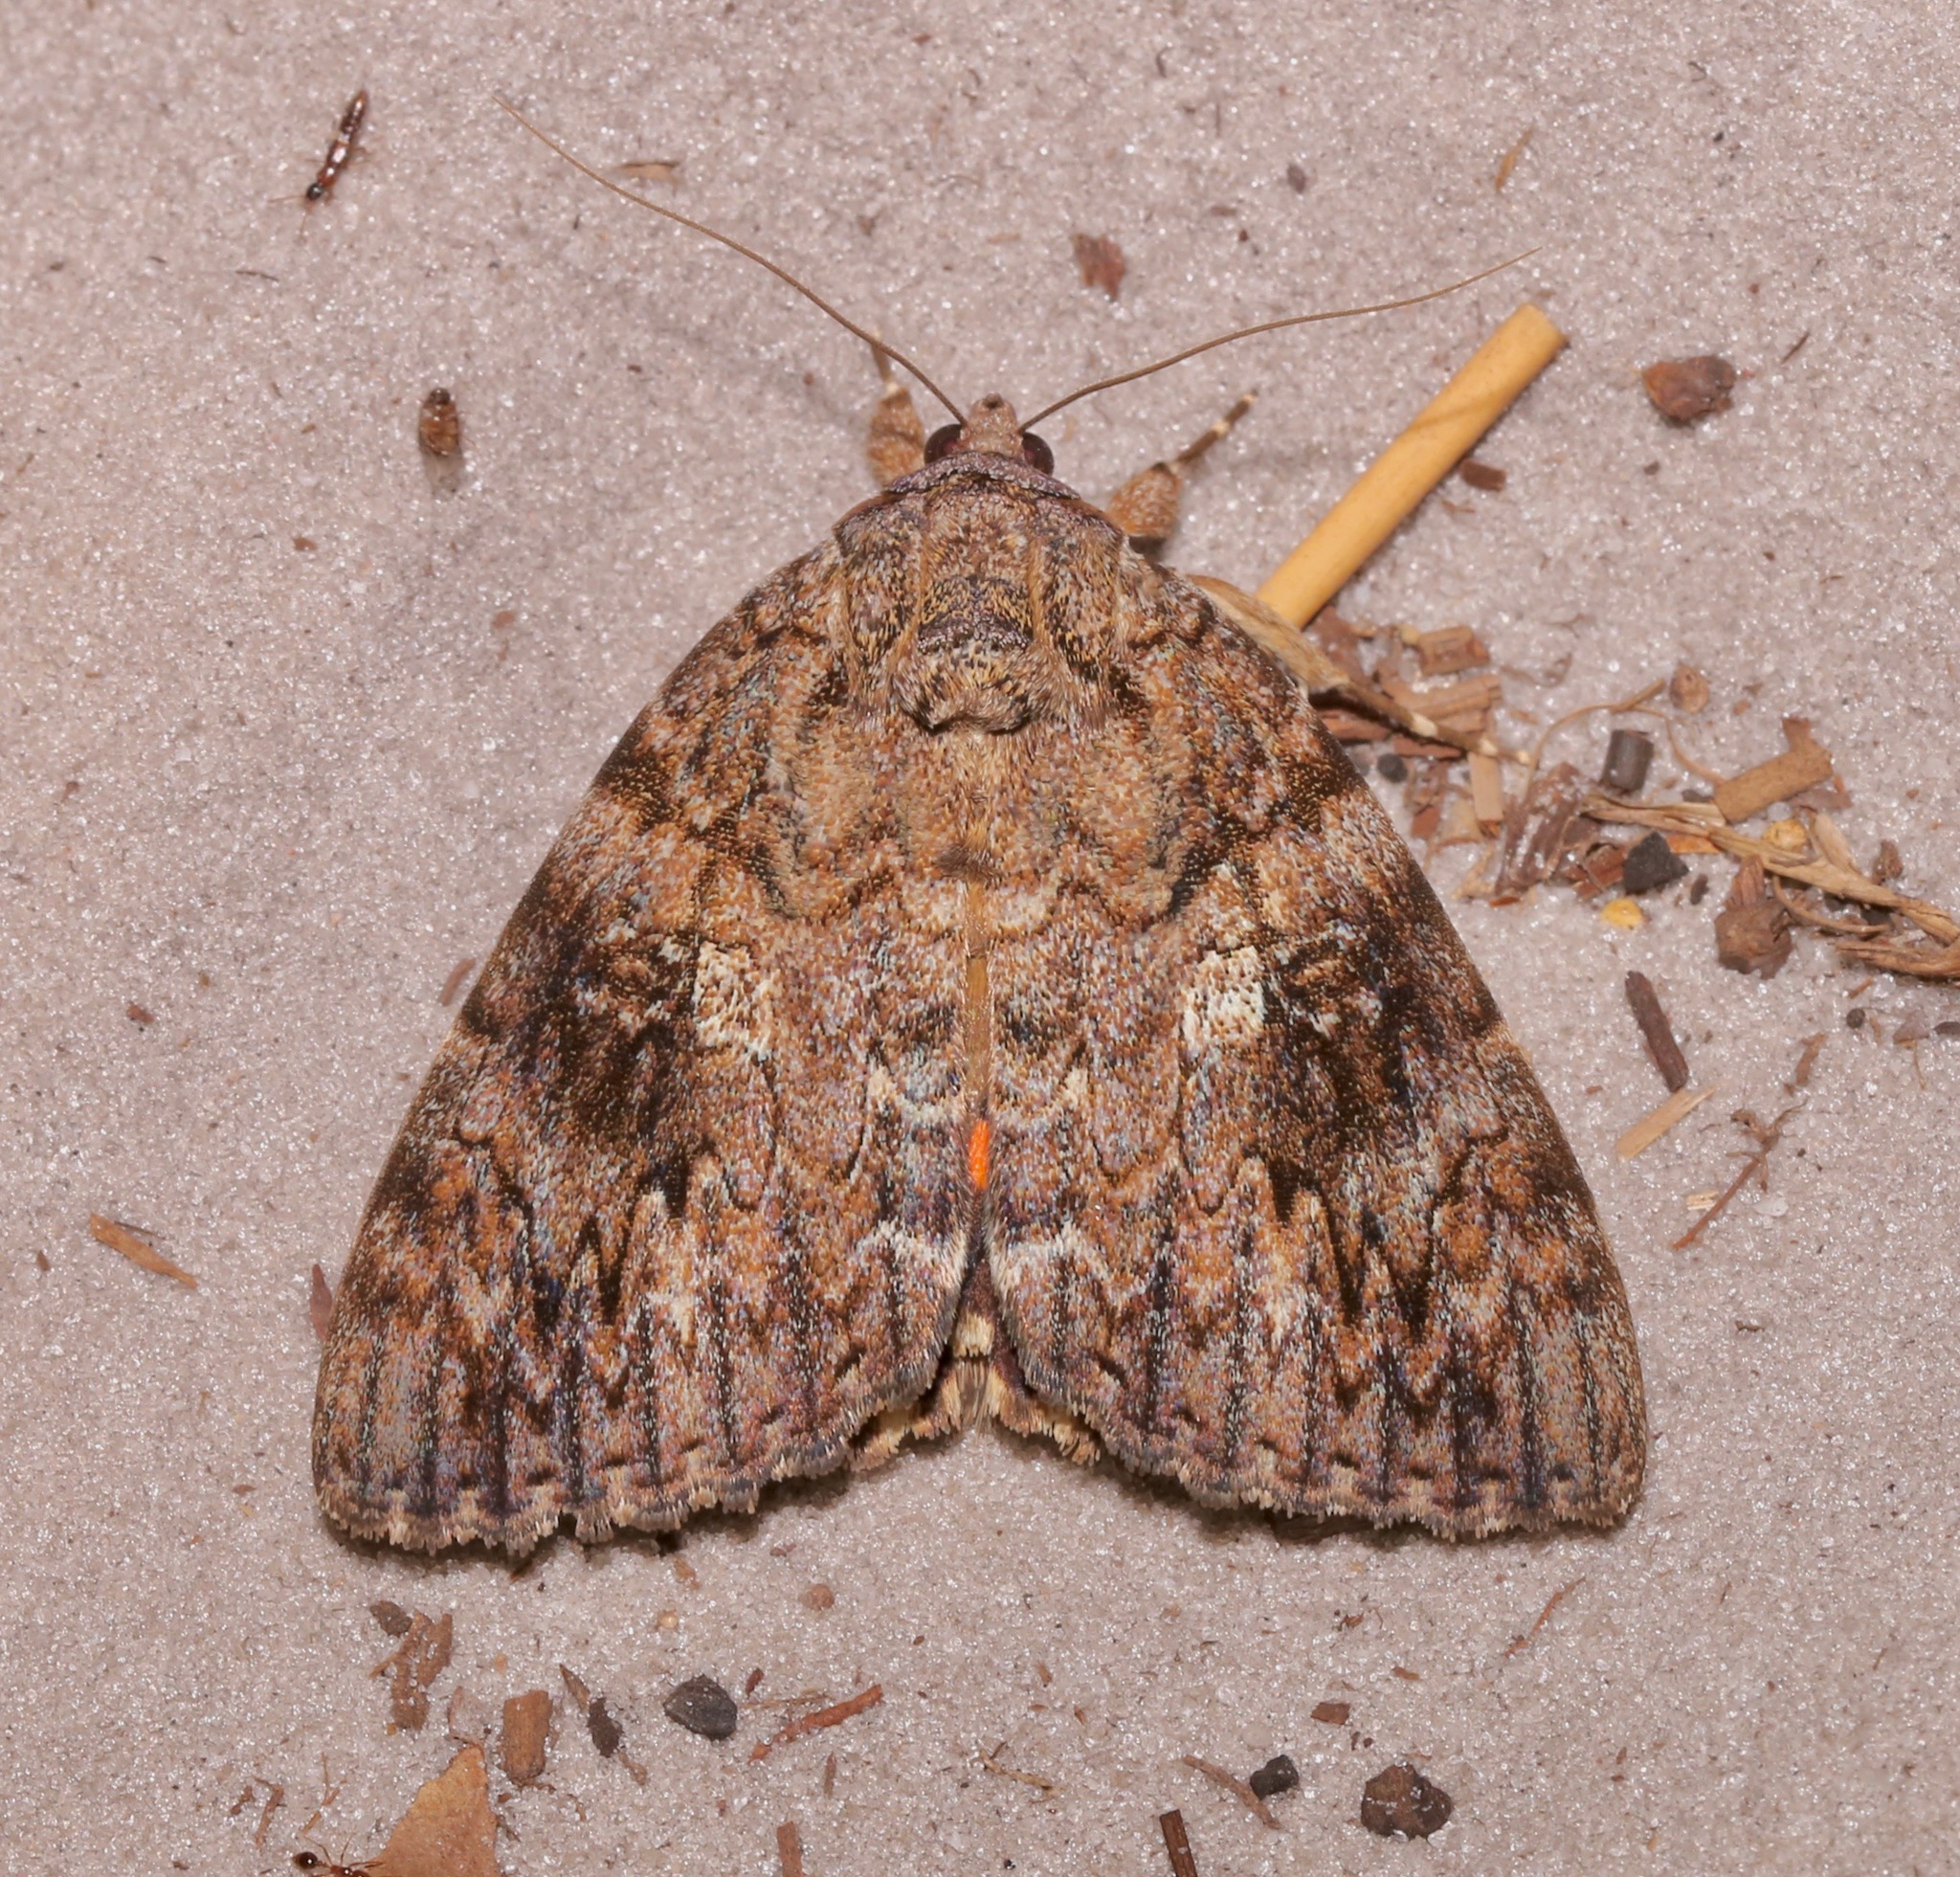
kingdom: Animalia
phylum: Arthropoda
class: Insecta
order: Lepidoptera
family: Erebidae
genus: Catocala
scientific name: Catocala umbrosa
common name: Umber underwing
